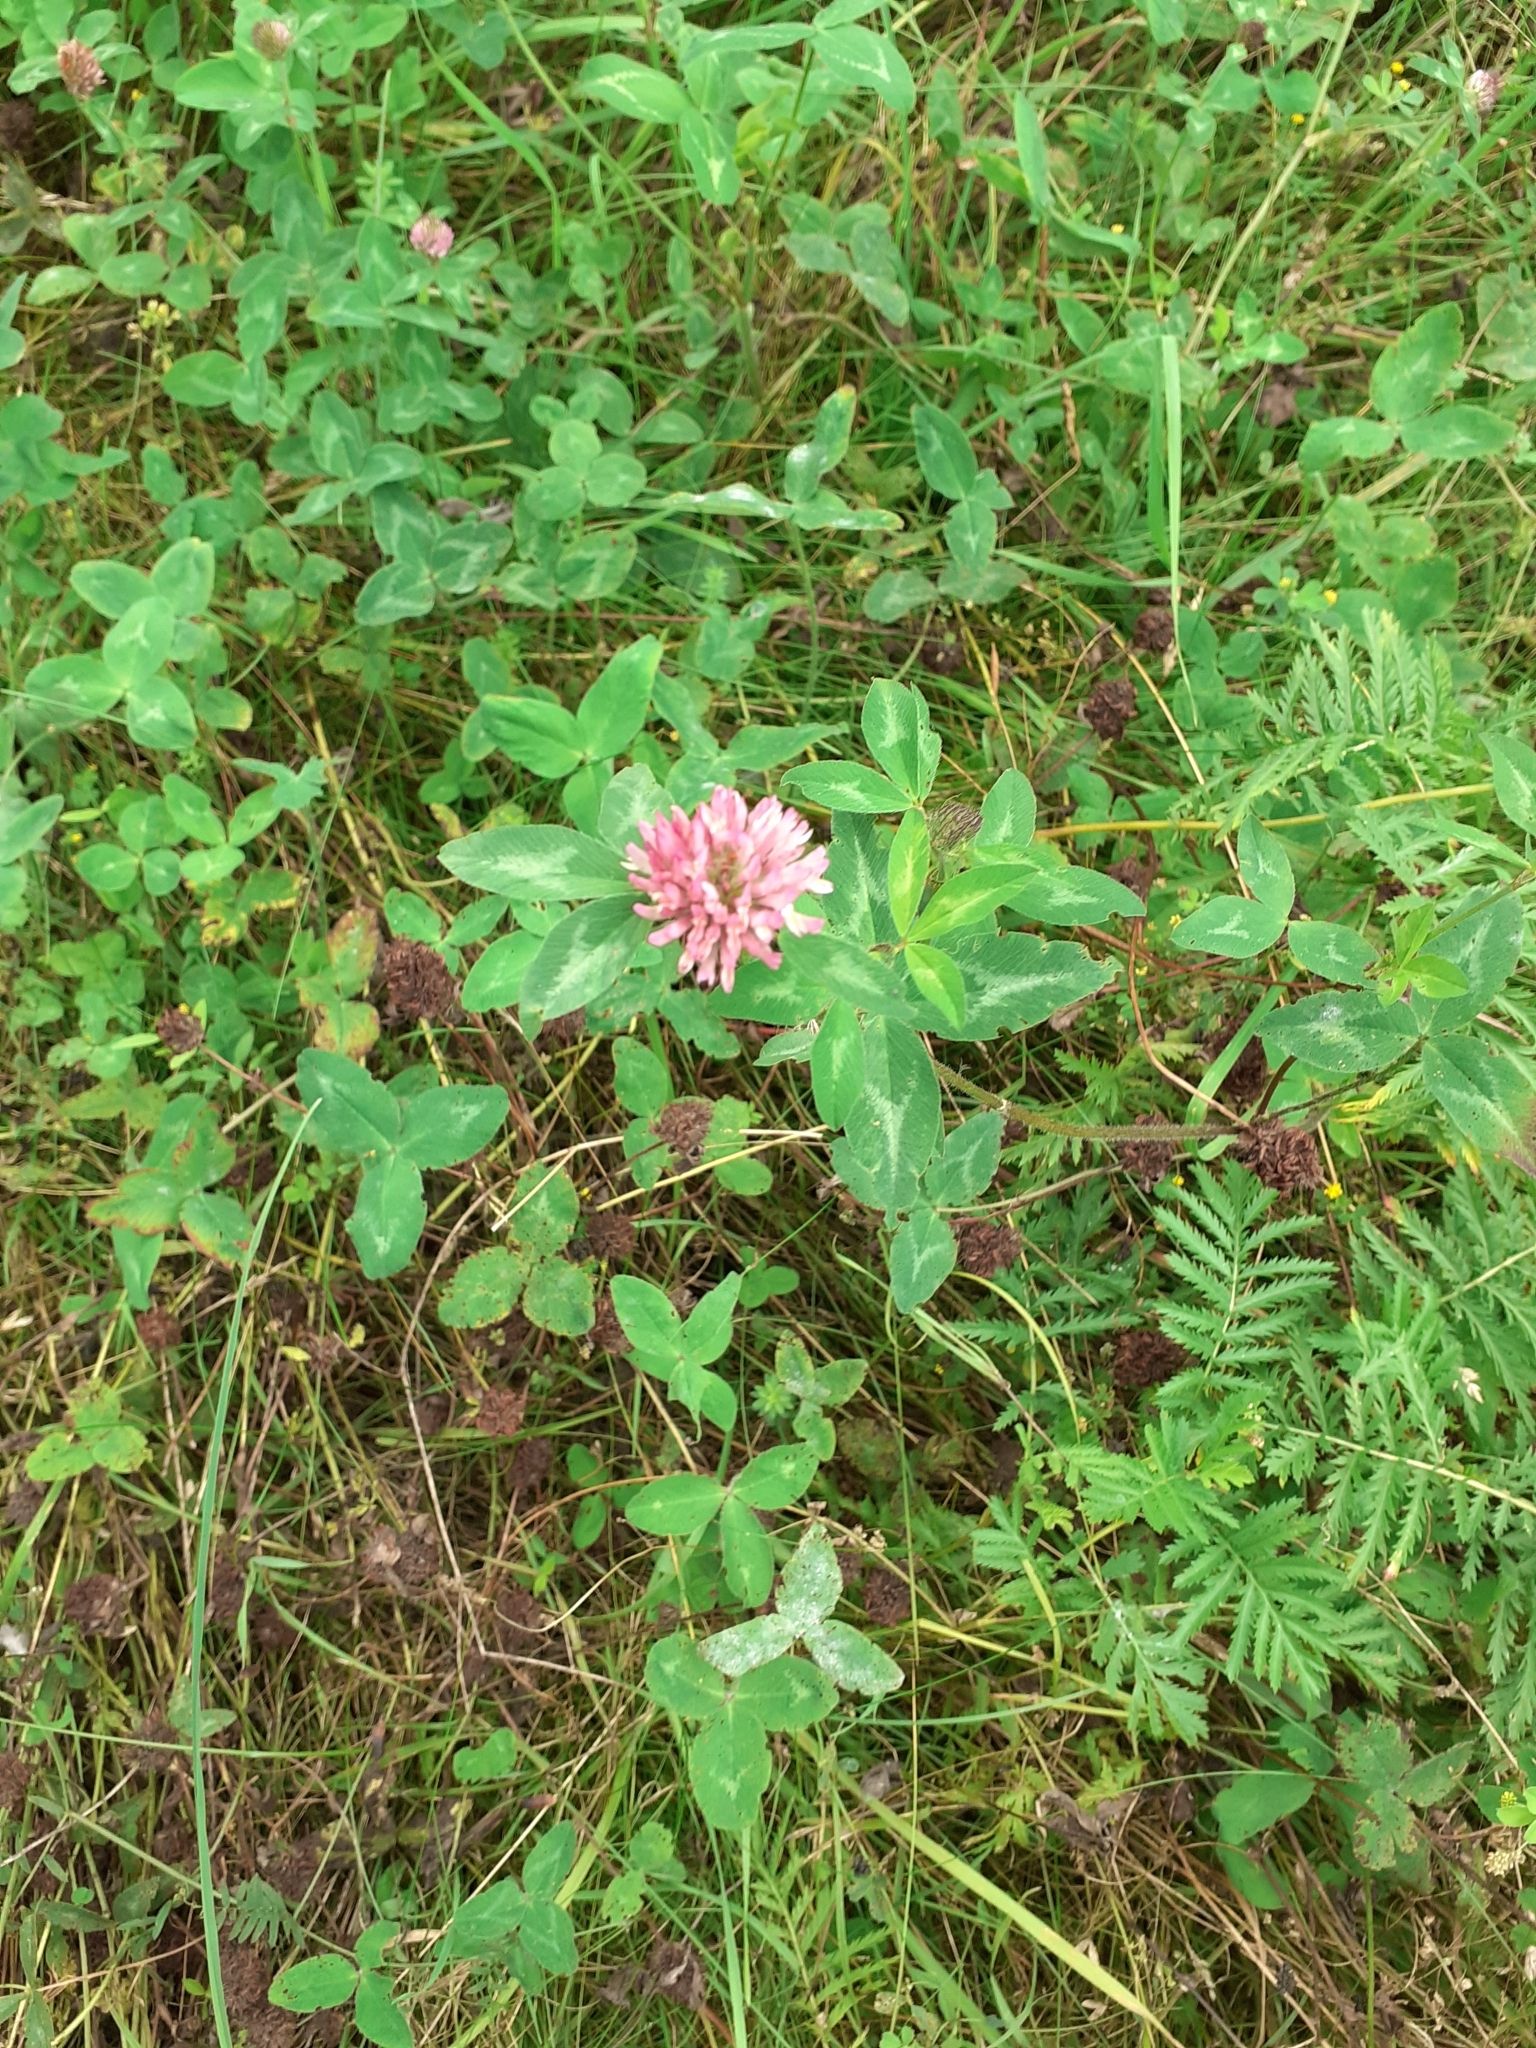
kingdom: Plantae
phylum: Tracheophyta
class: Magnoliopsida
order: Fabales
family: Fabaceae
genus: Trifolium
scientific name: Trifolium pratense
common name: Red clover
